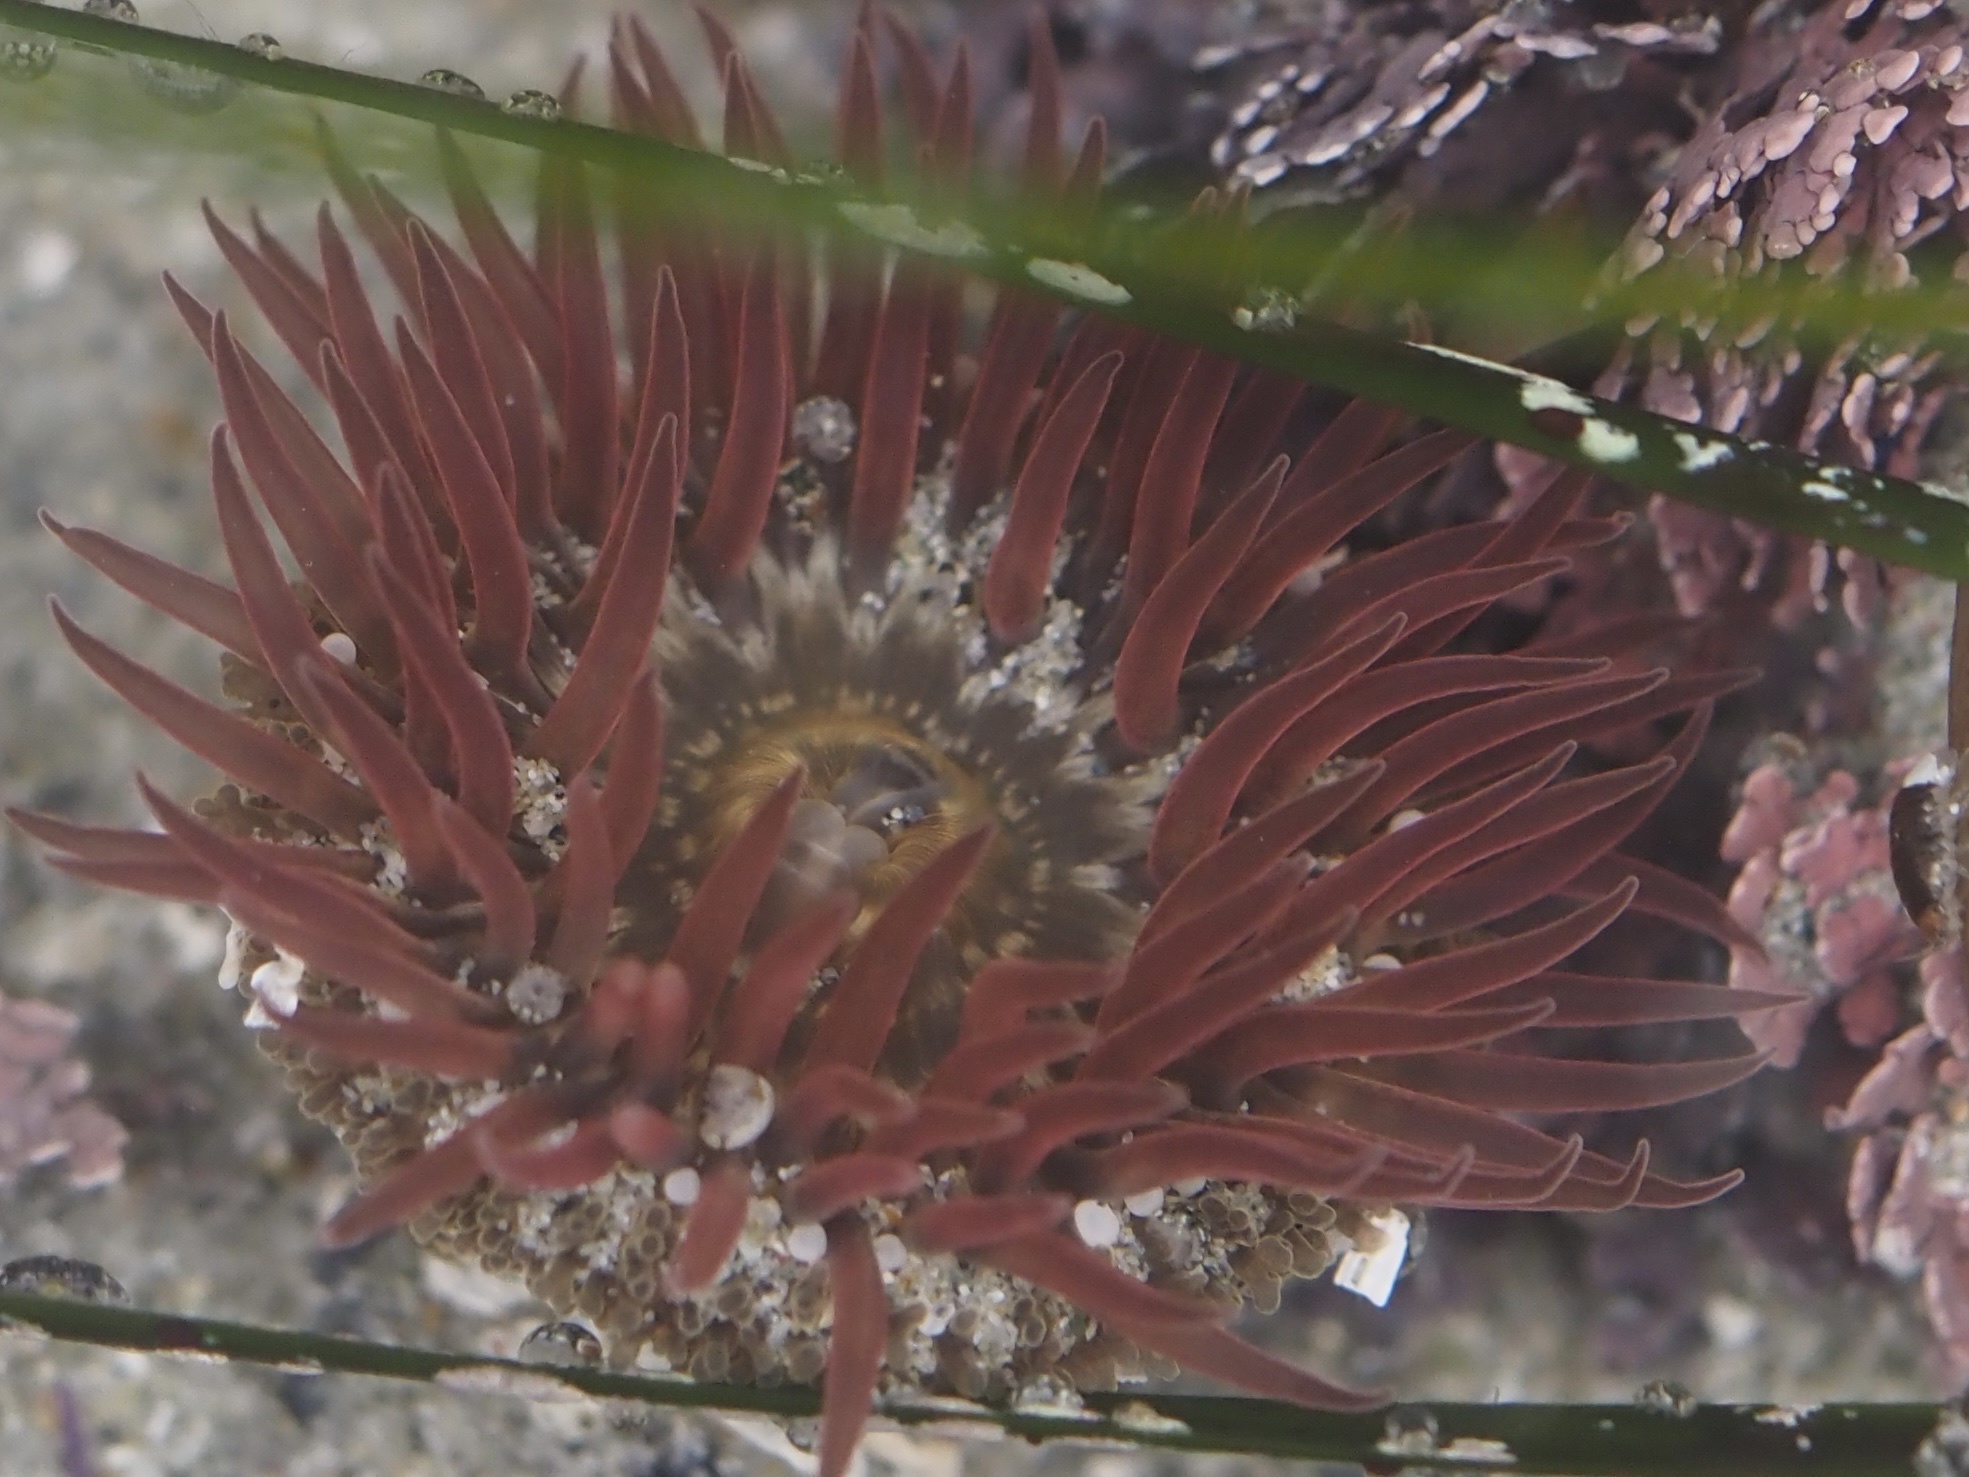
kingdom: Animalia
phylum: Cnidaria
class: Anthozoa
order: Actiniaria
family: Actiniidae
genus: Anthopleura
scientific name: Anthopleura artemisia
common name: Buried sea anemone
